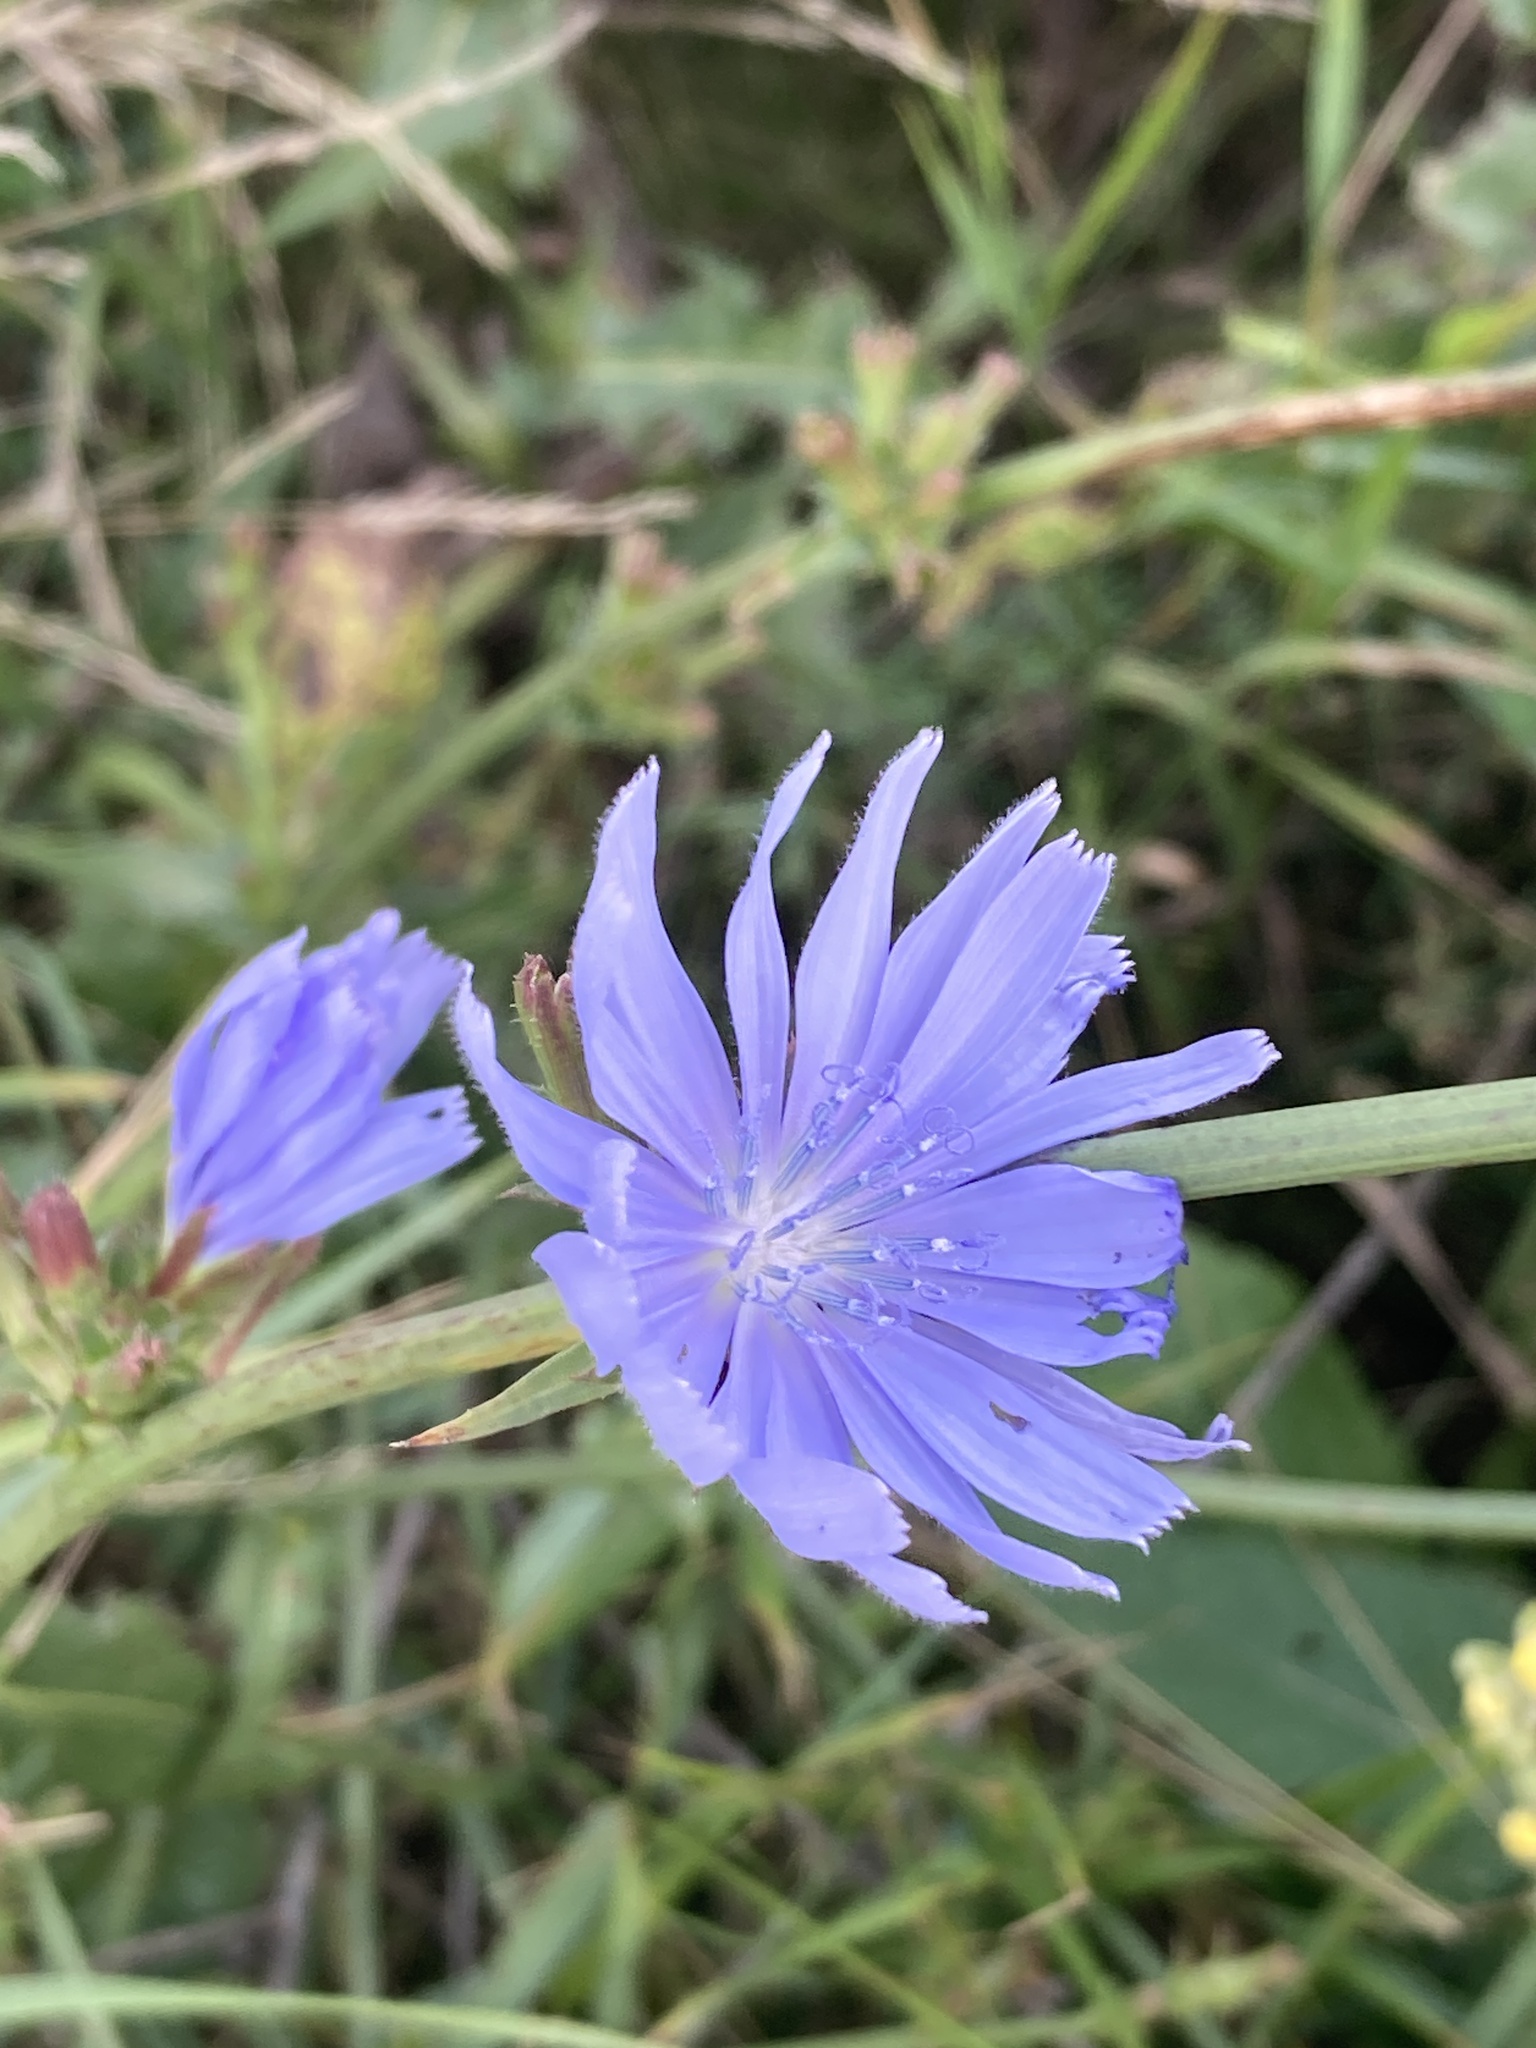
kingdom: Plantae
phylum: Tracheophyta
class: Magnoliopsida
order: Asterales
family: Asteraceae
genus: Cichorium
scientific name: Cichorium intybus
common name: Chicory
